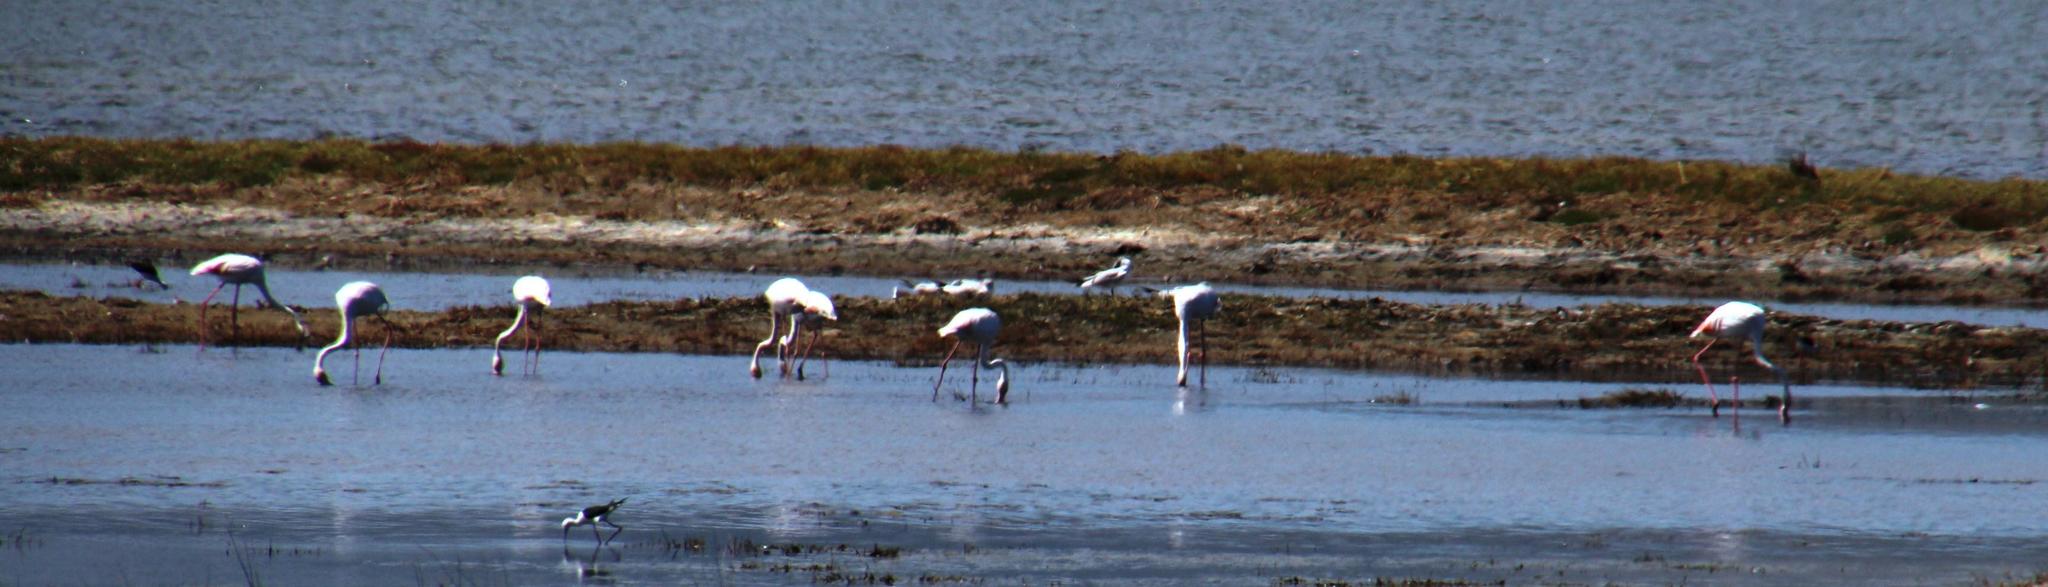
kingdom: Animalia
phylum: Chordata
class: Aves
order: Phoenicopteriformes
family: Phoenicopteridae
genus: Phoenicopterus
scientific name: Phoenicopterus roseus
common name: Greater flamingo
